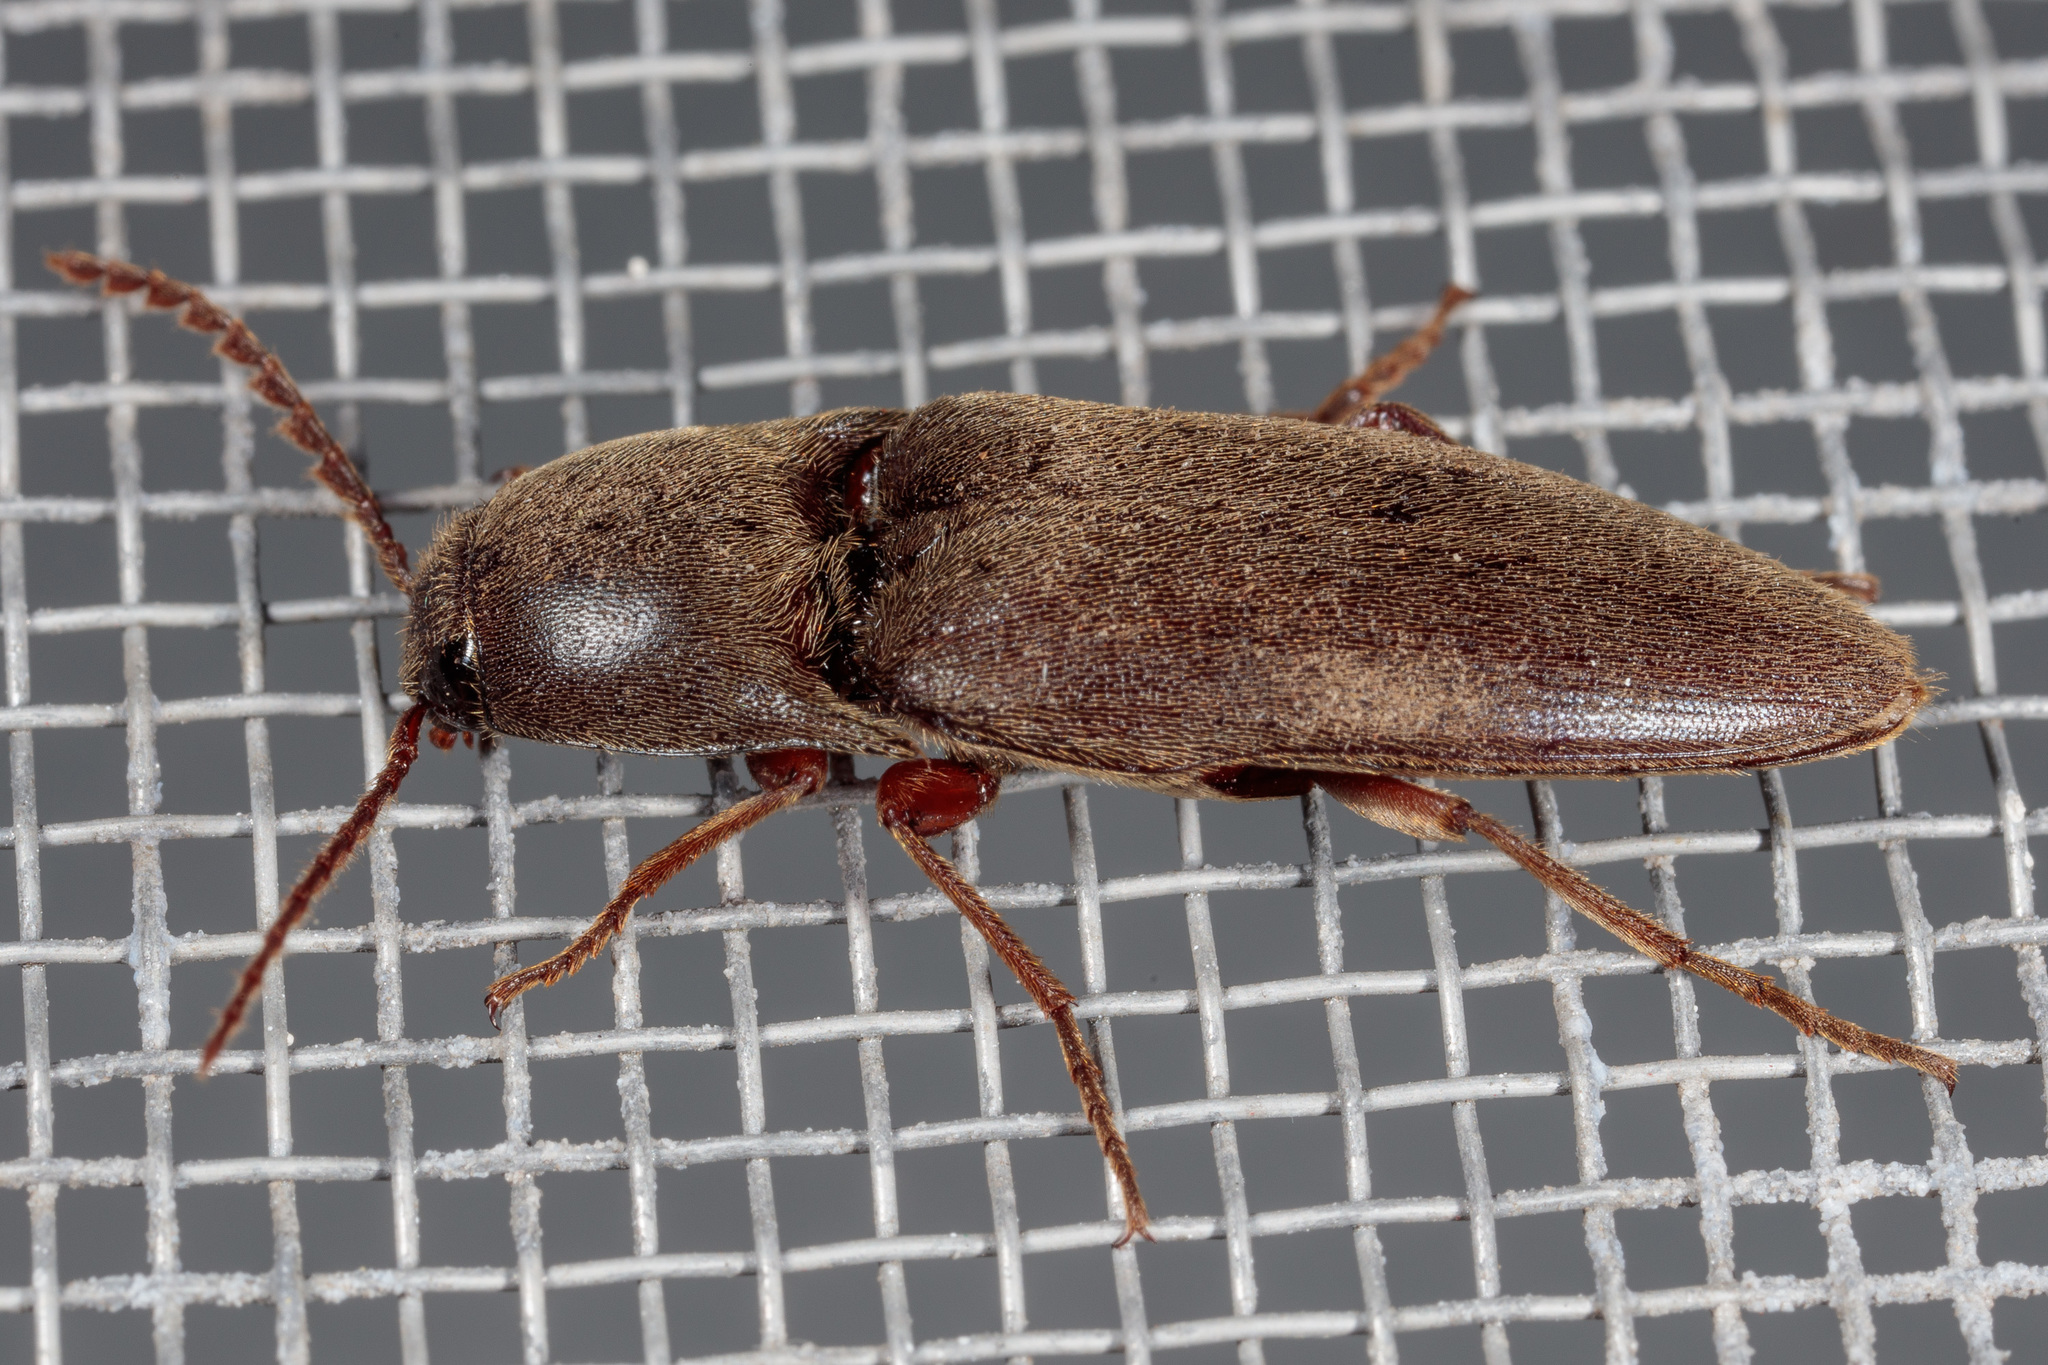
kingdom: Animalia
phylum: Arthropoda
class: Insecta
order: Coleoptera
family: Elateridae
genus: Diplostethus
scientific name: Diplostethus
